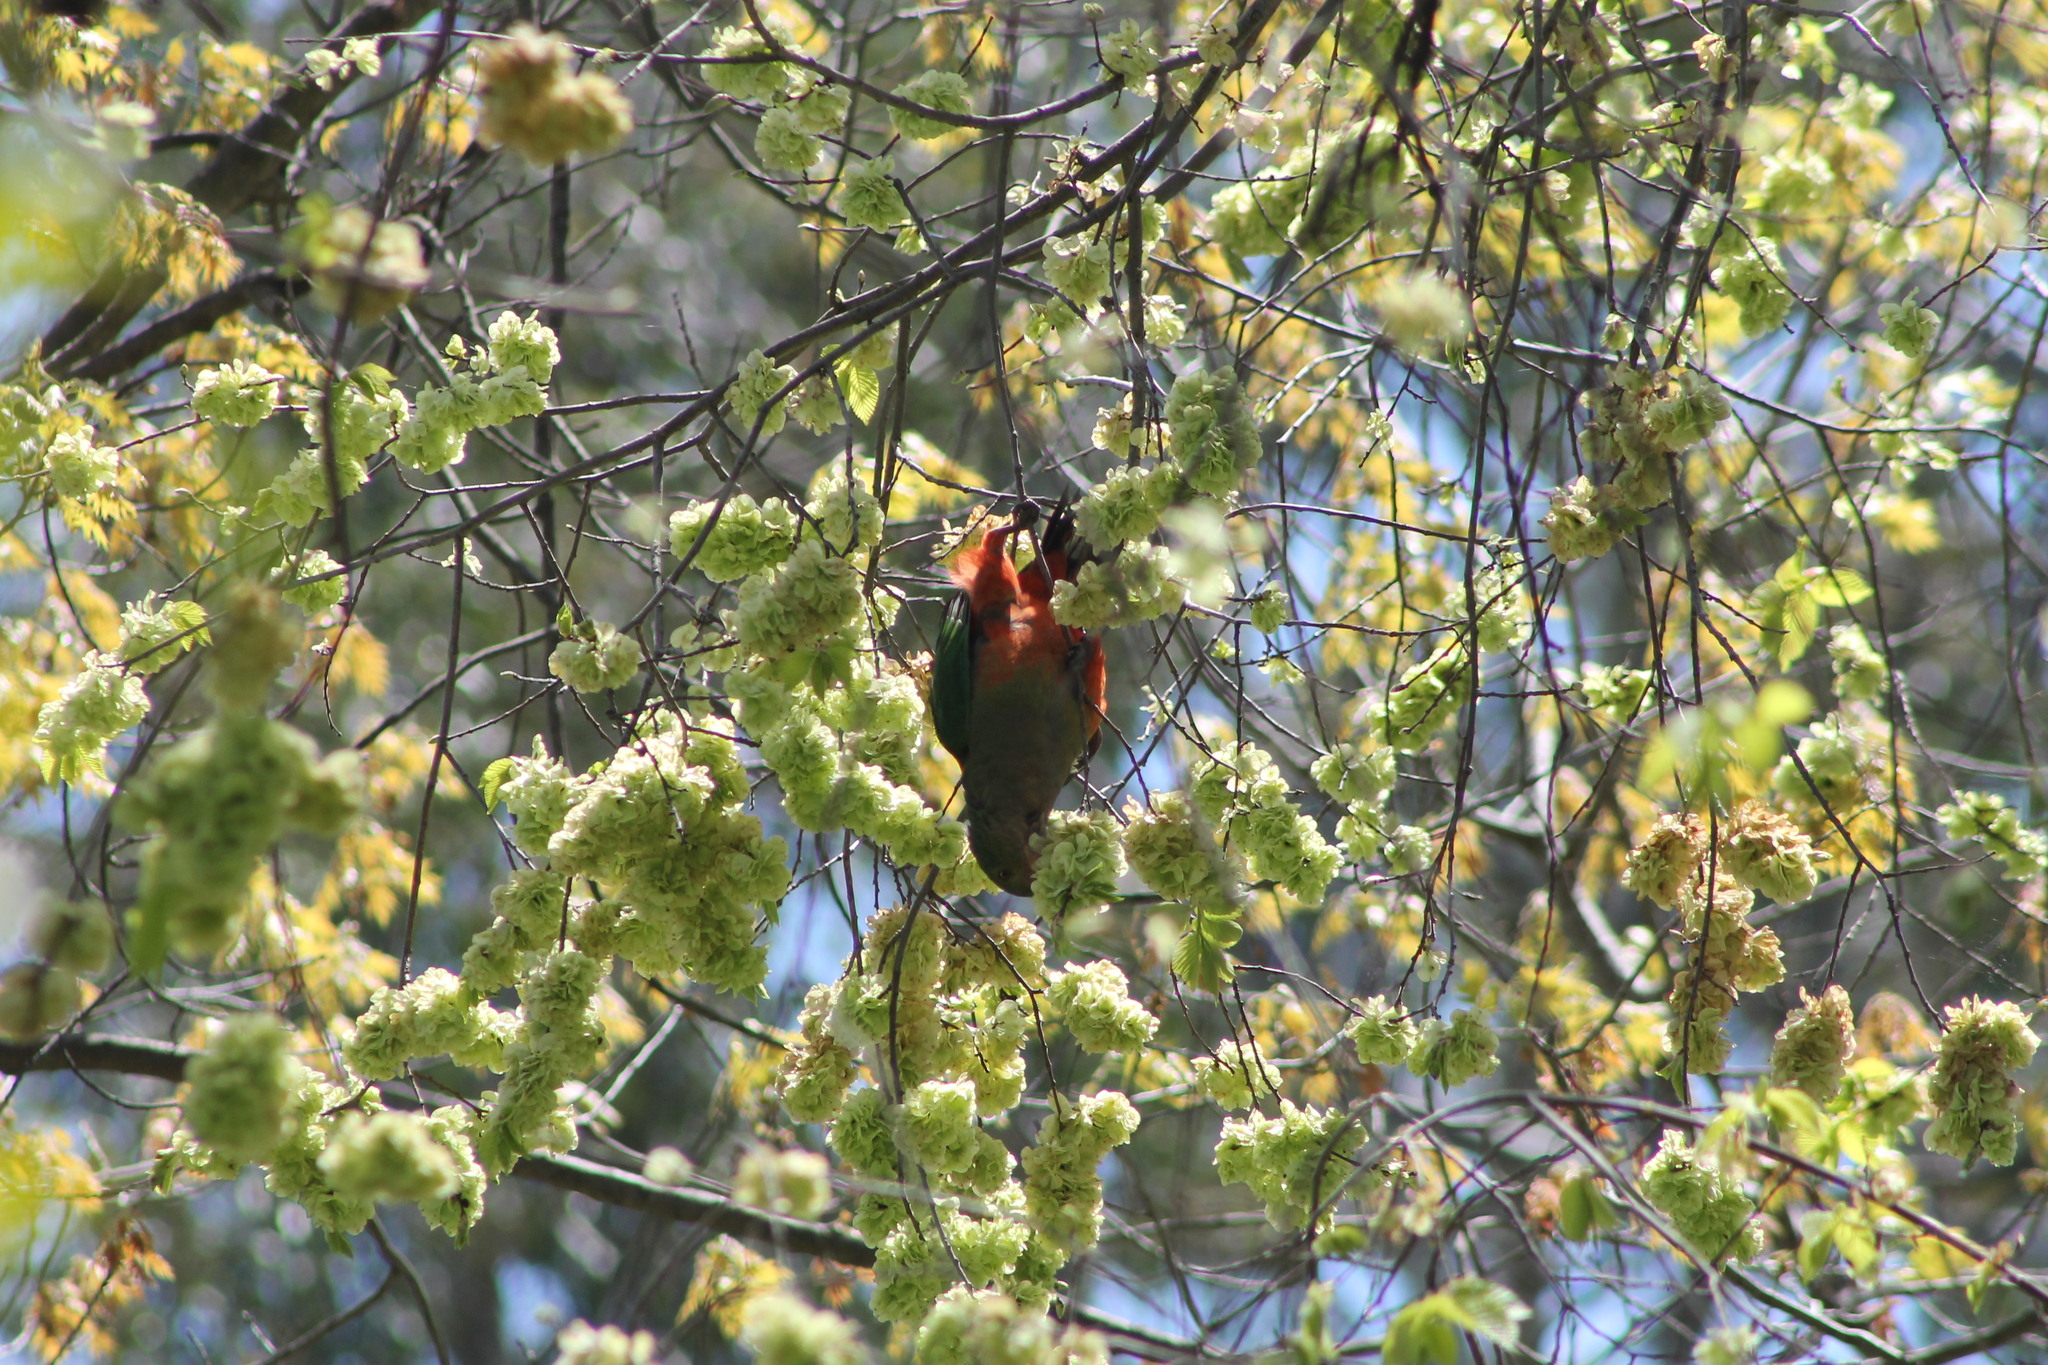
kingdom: Animalia
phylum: Chordata
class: Aves
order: Psittaciformes
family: Psittacidae
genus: Alisterus
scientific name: Alisterus scapularis
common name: Australian king parrot
